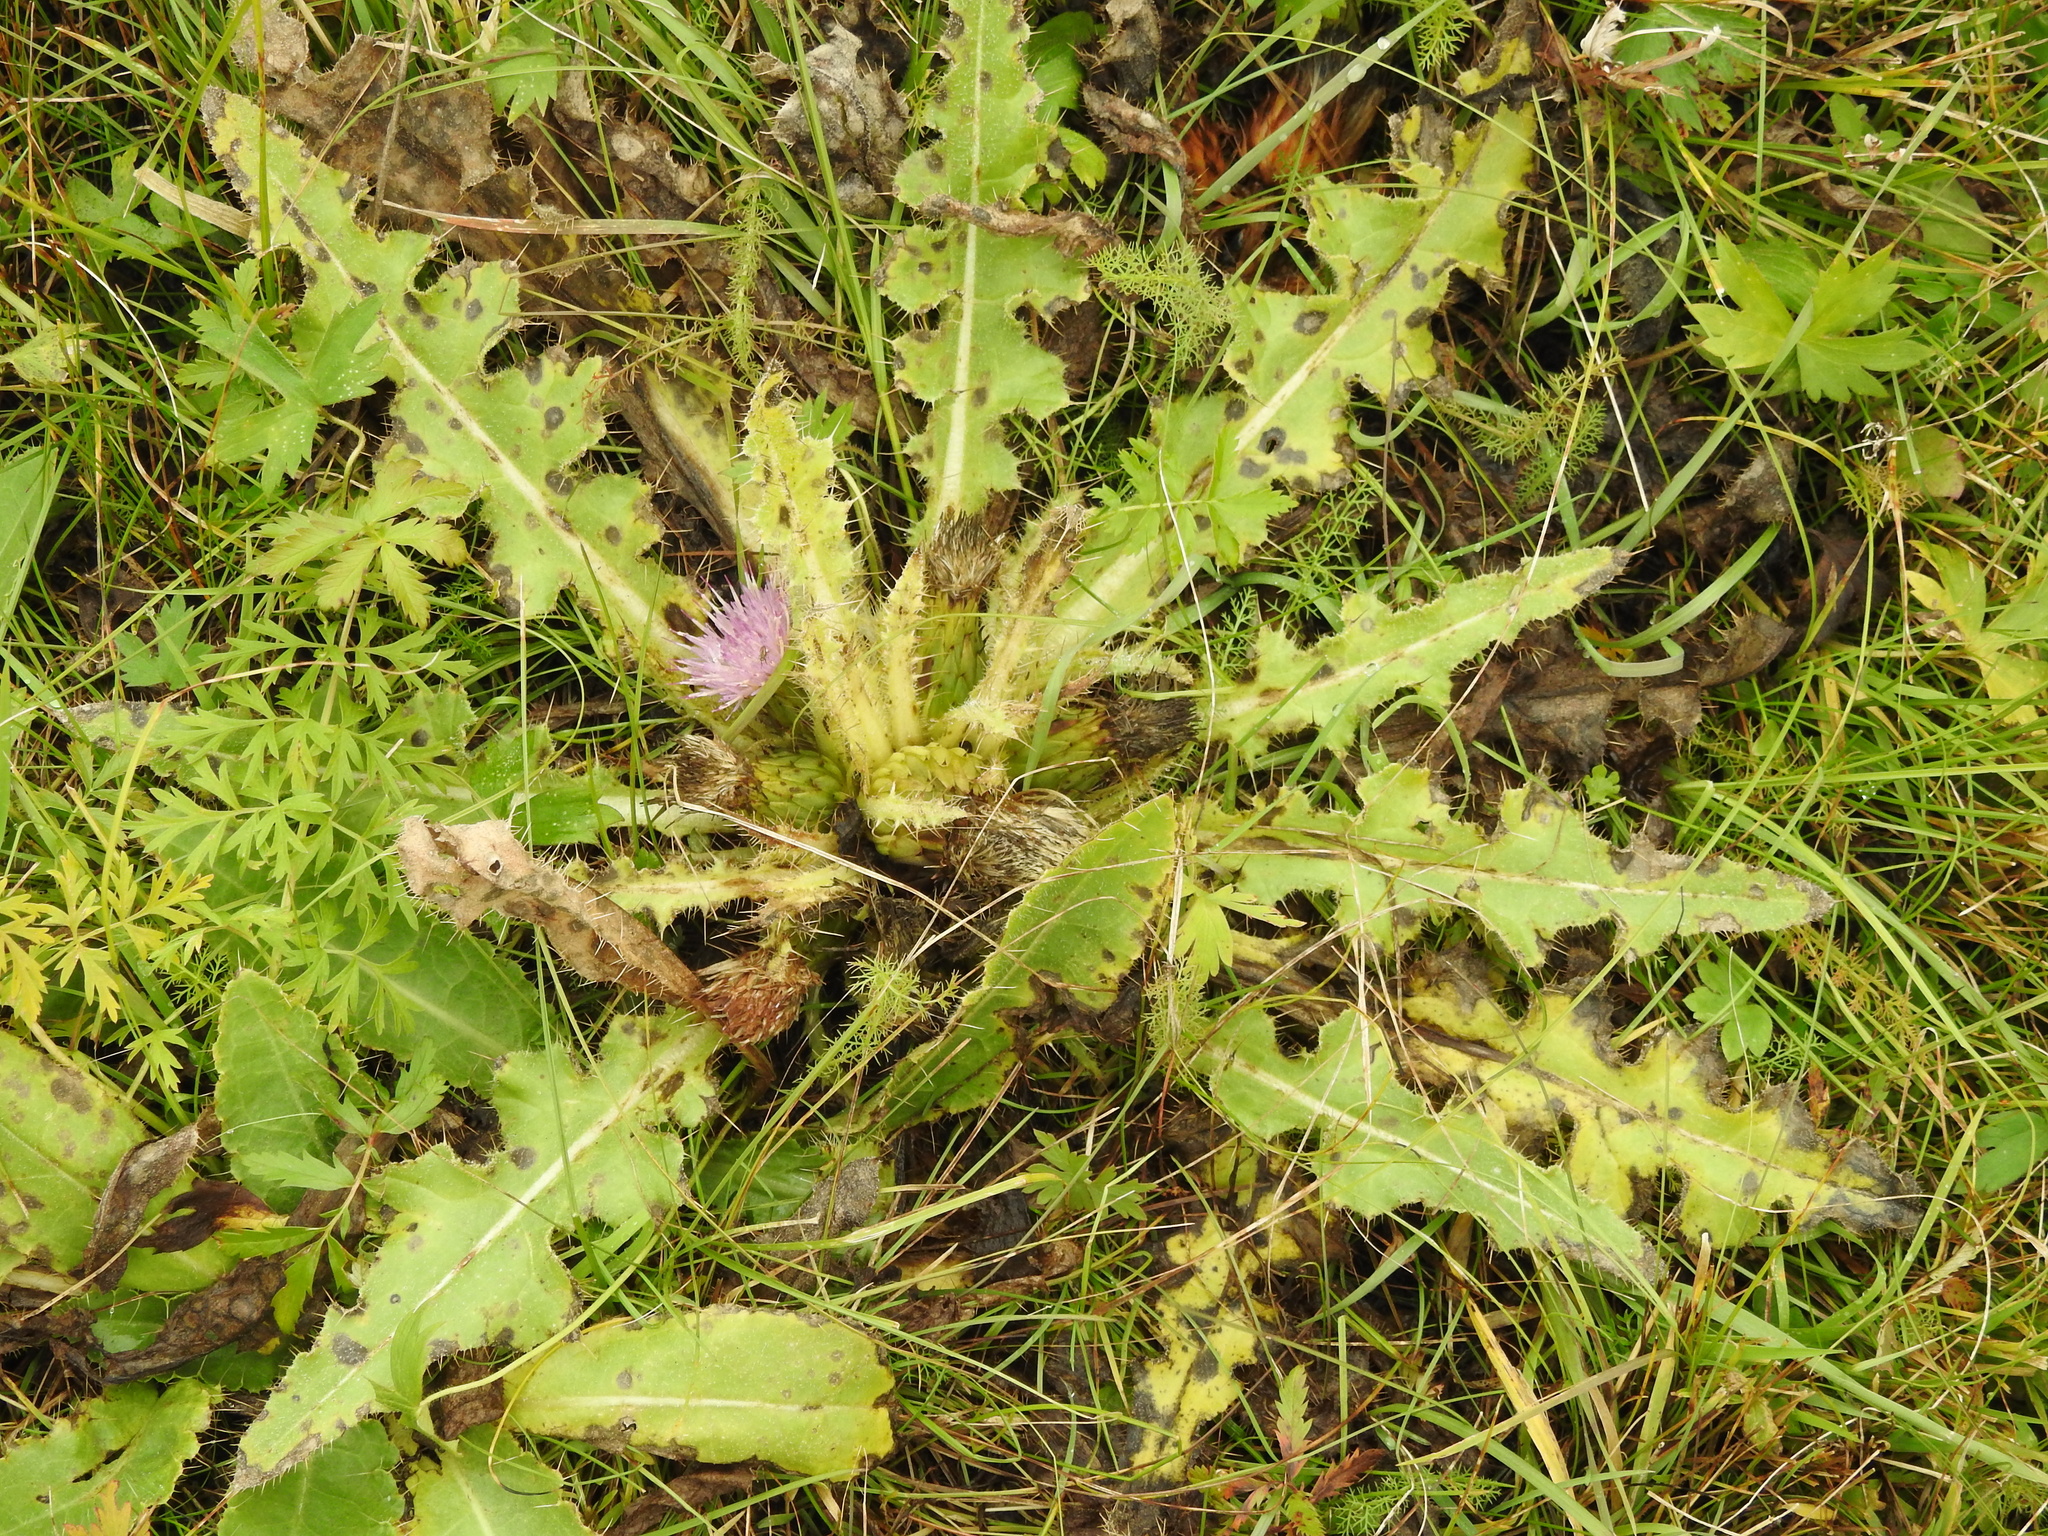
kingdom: Plantae
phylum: Tracheophyta
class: Magnoliopsida
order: Asterales
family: Asteraceae
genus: Cirsium
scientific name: Cirsium esculentum
